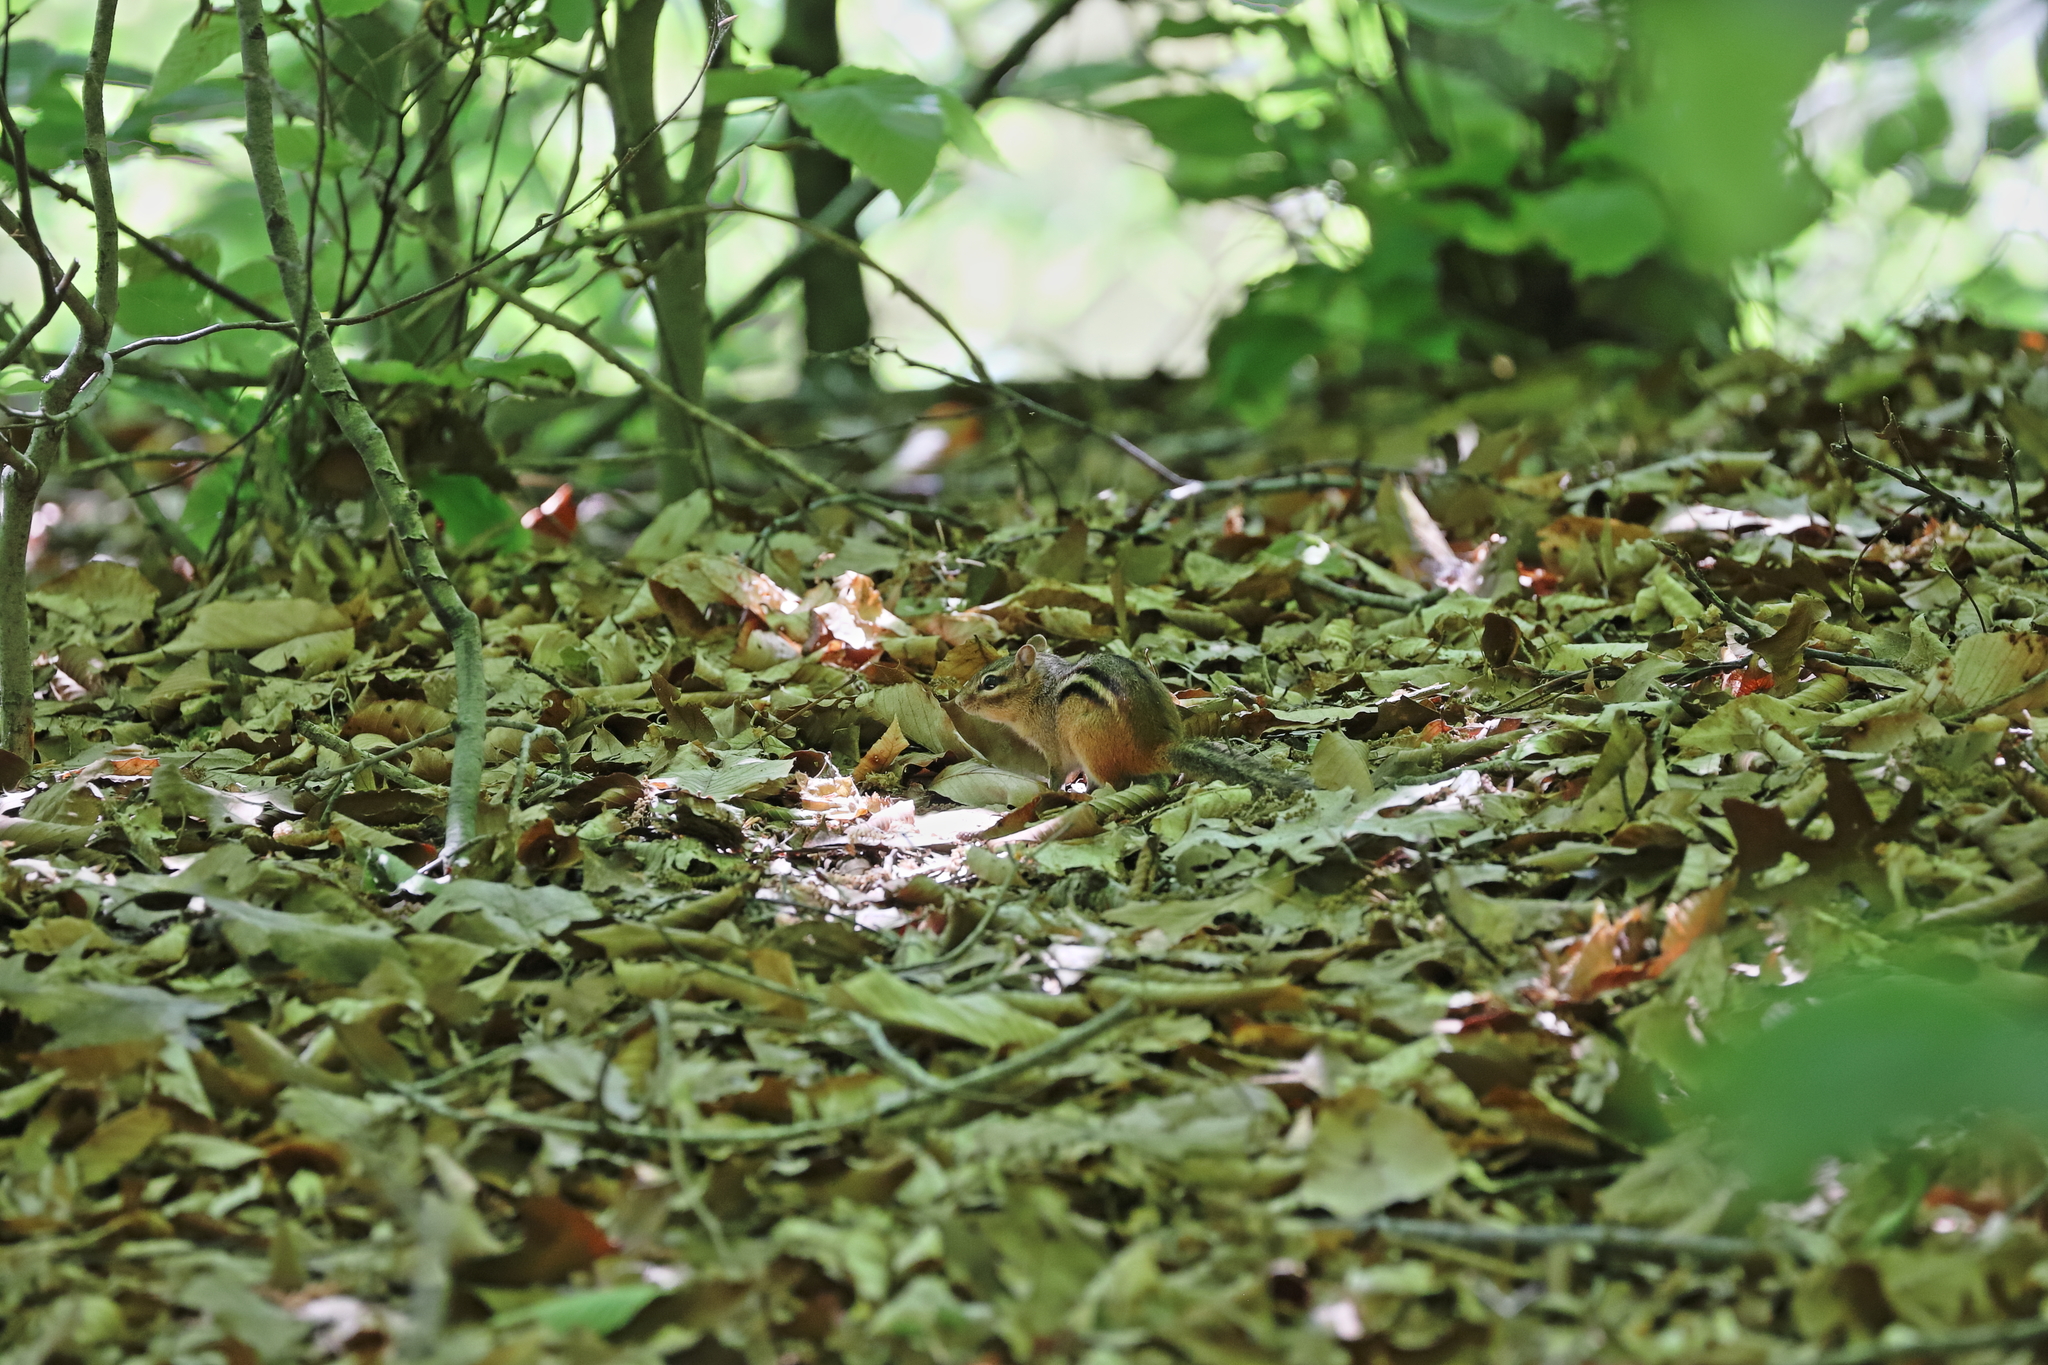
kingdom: Animalia
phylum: Chordata
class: Mammalia
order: Rodentia
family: Sciuridae
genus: Tamias
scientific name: Tamias striatus
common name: Eastern chipmunk
